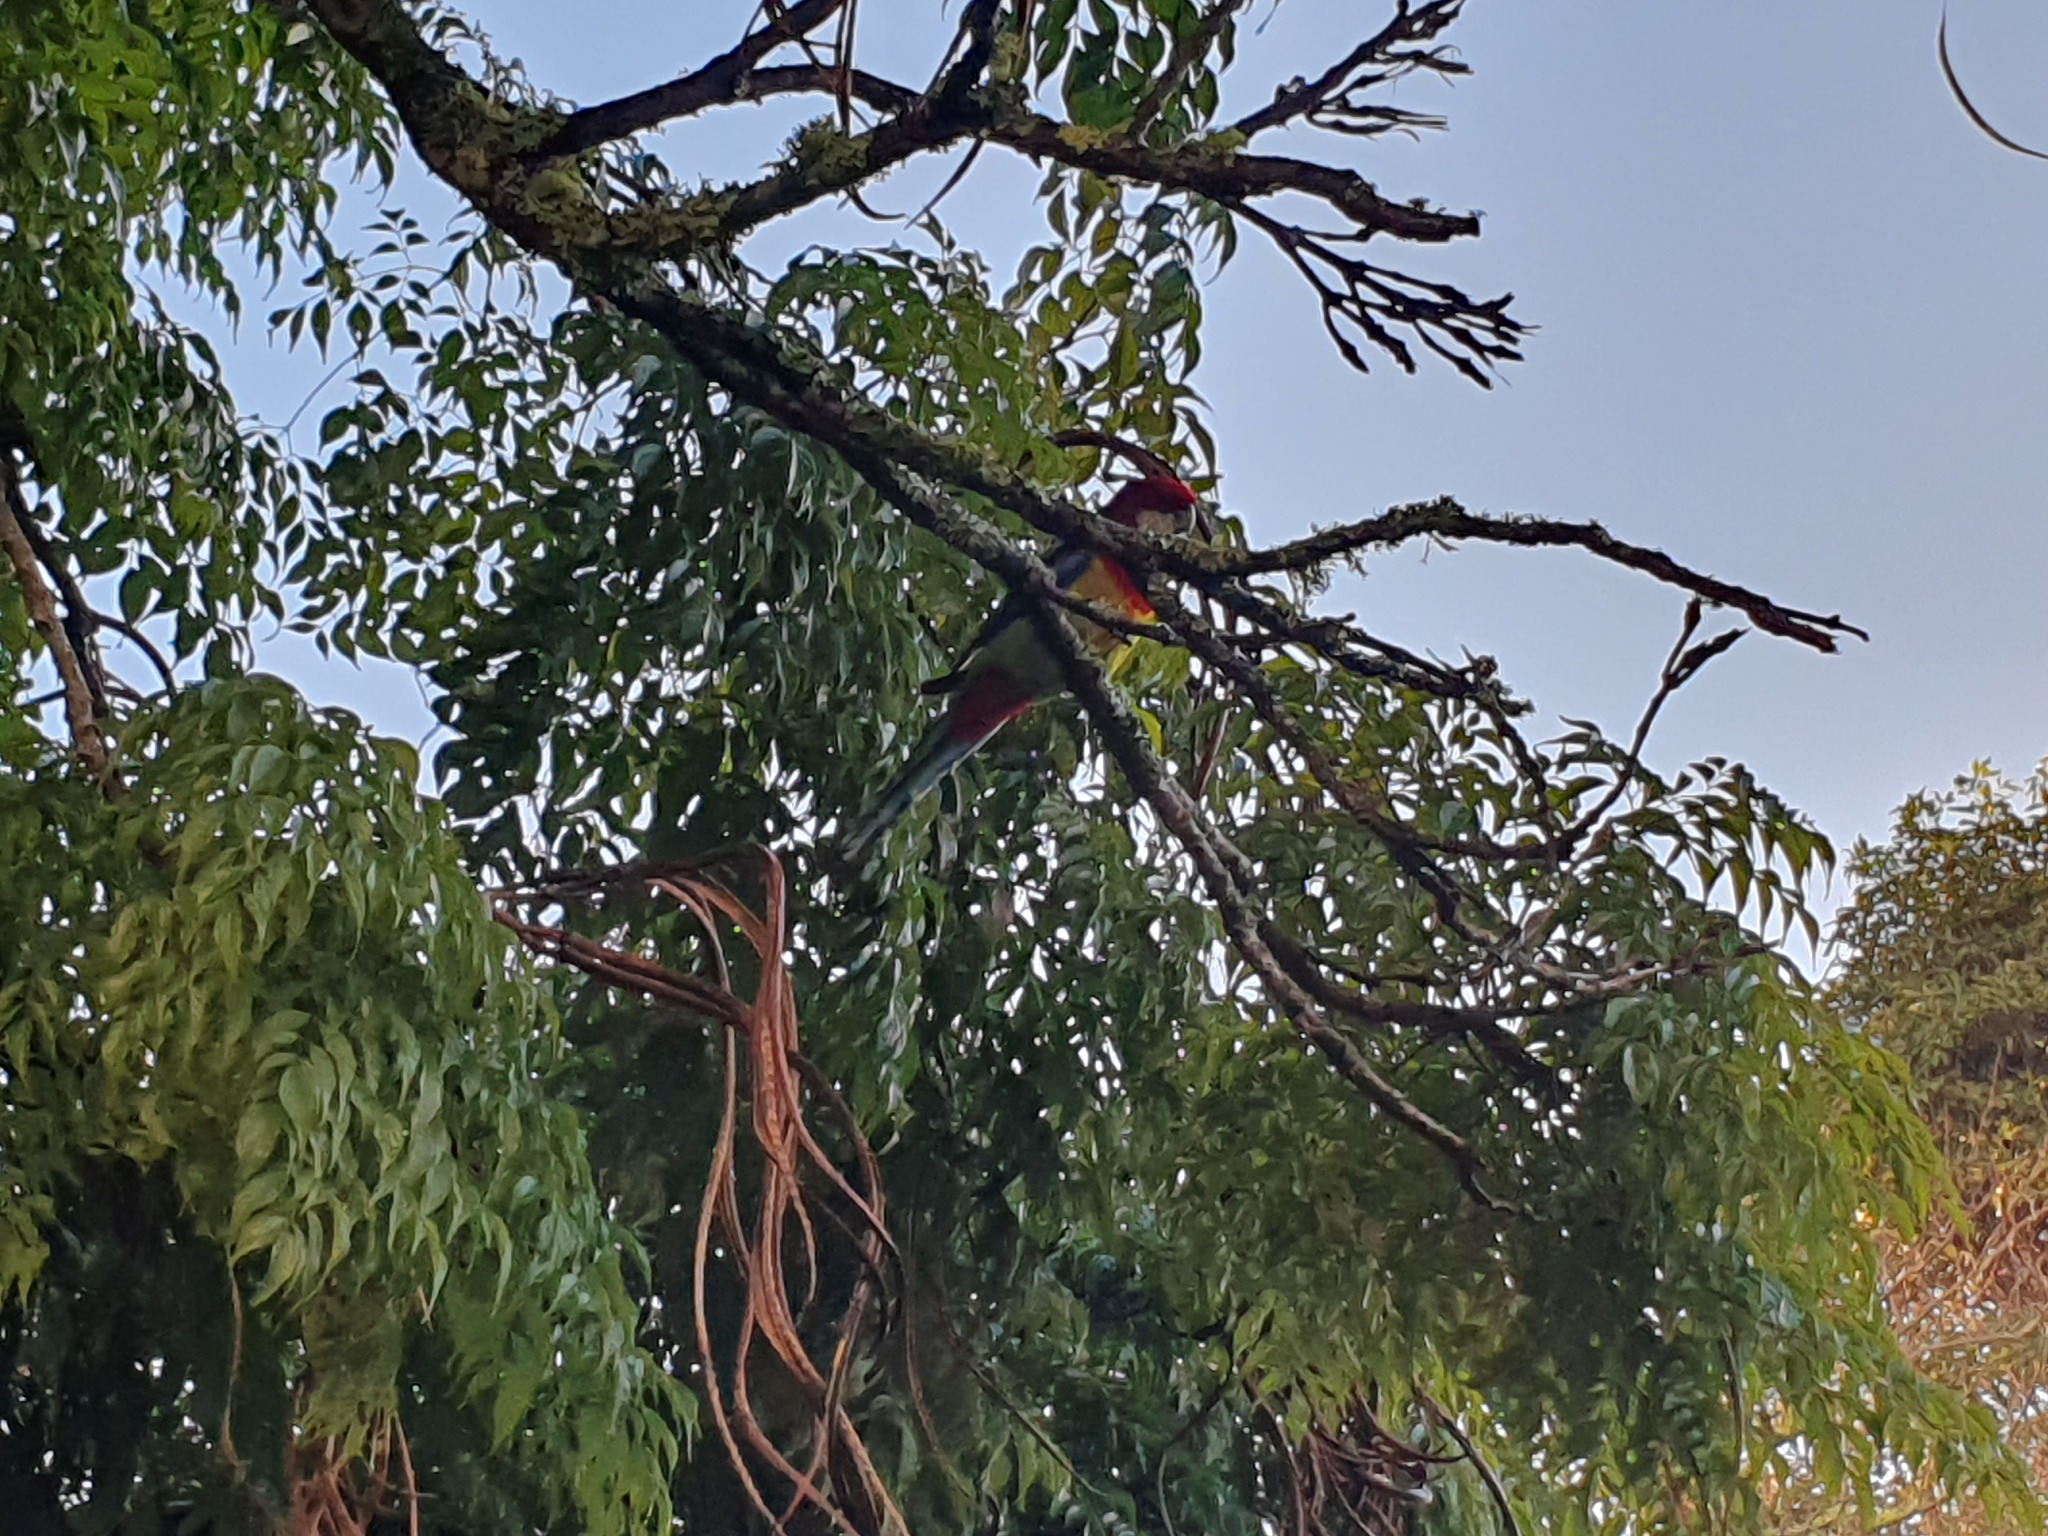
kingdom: Animalia
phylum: Chordata
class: Aves
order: Psittaciformes
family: Psittacidae
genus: Platycercus
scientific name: Platycercus eximius
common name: Eastern rosella
